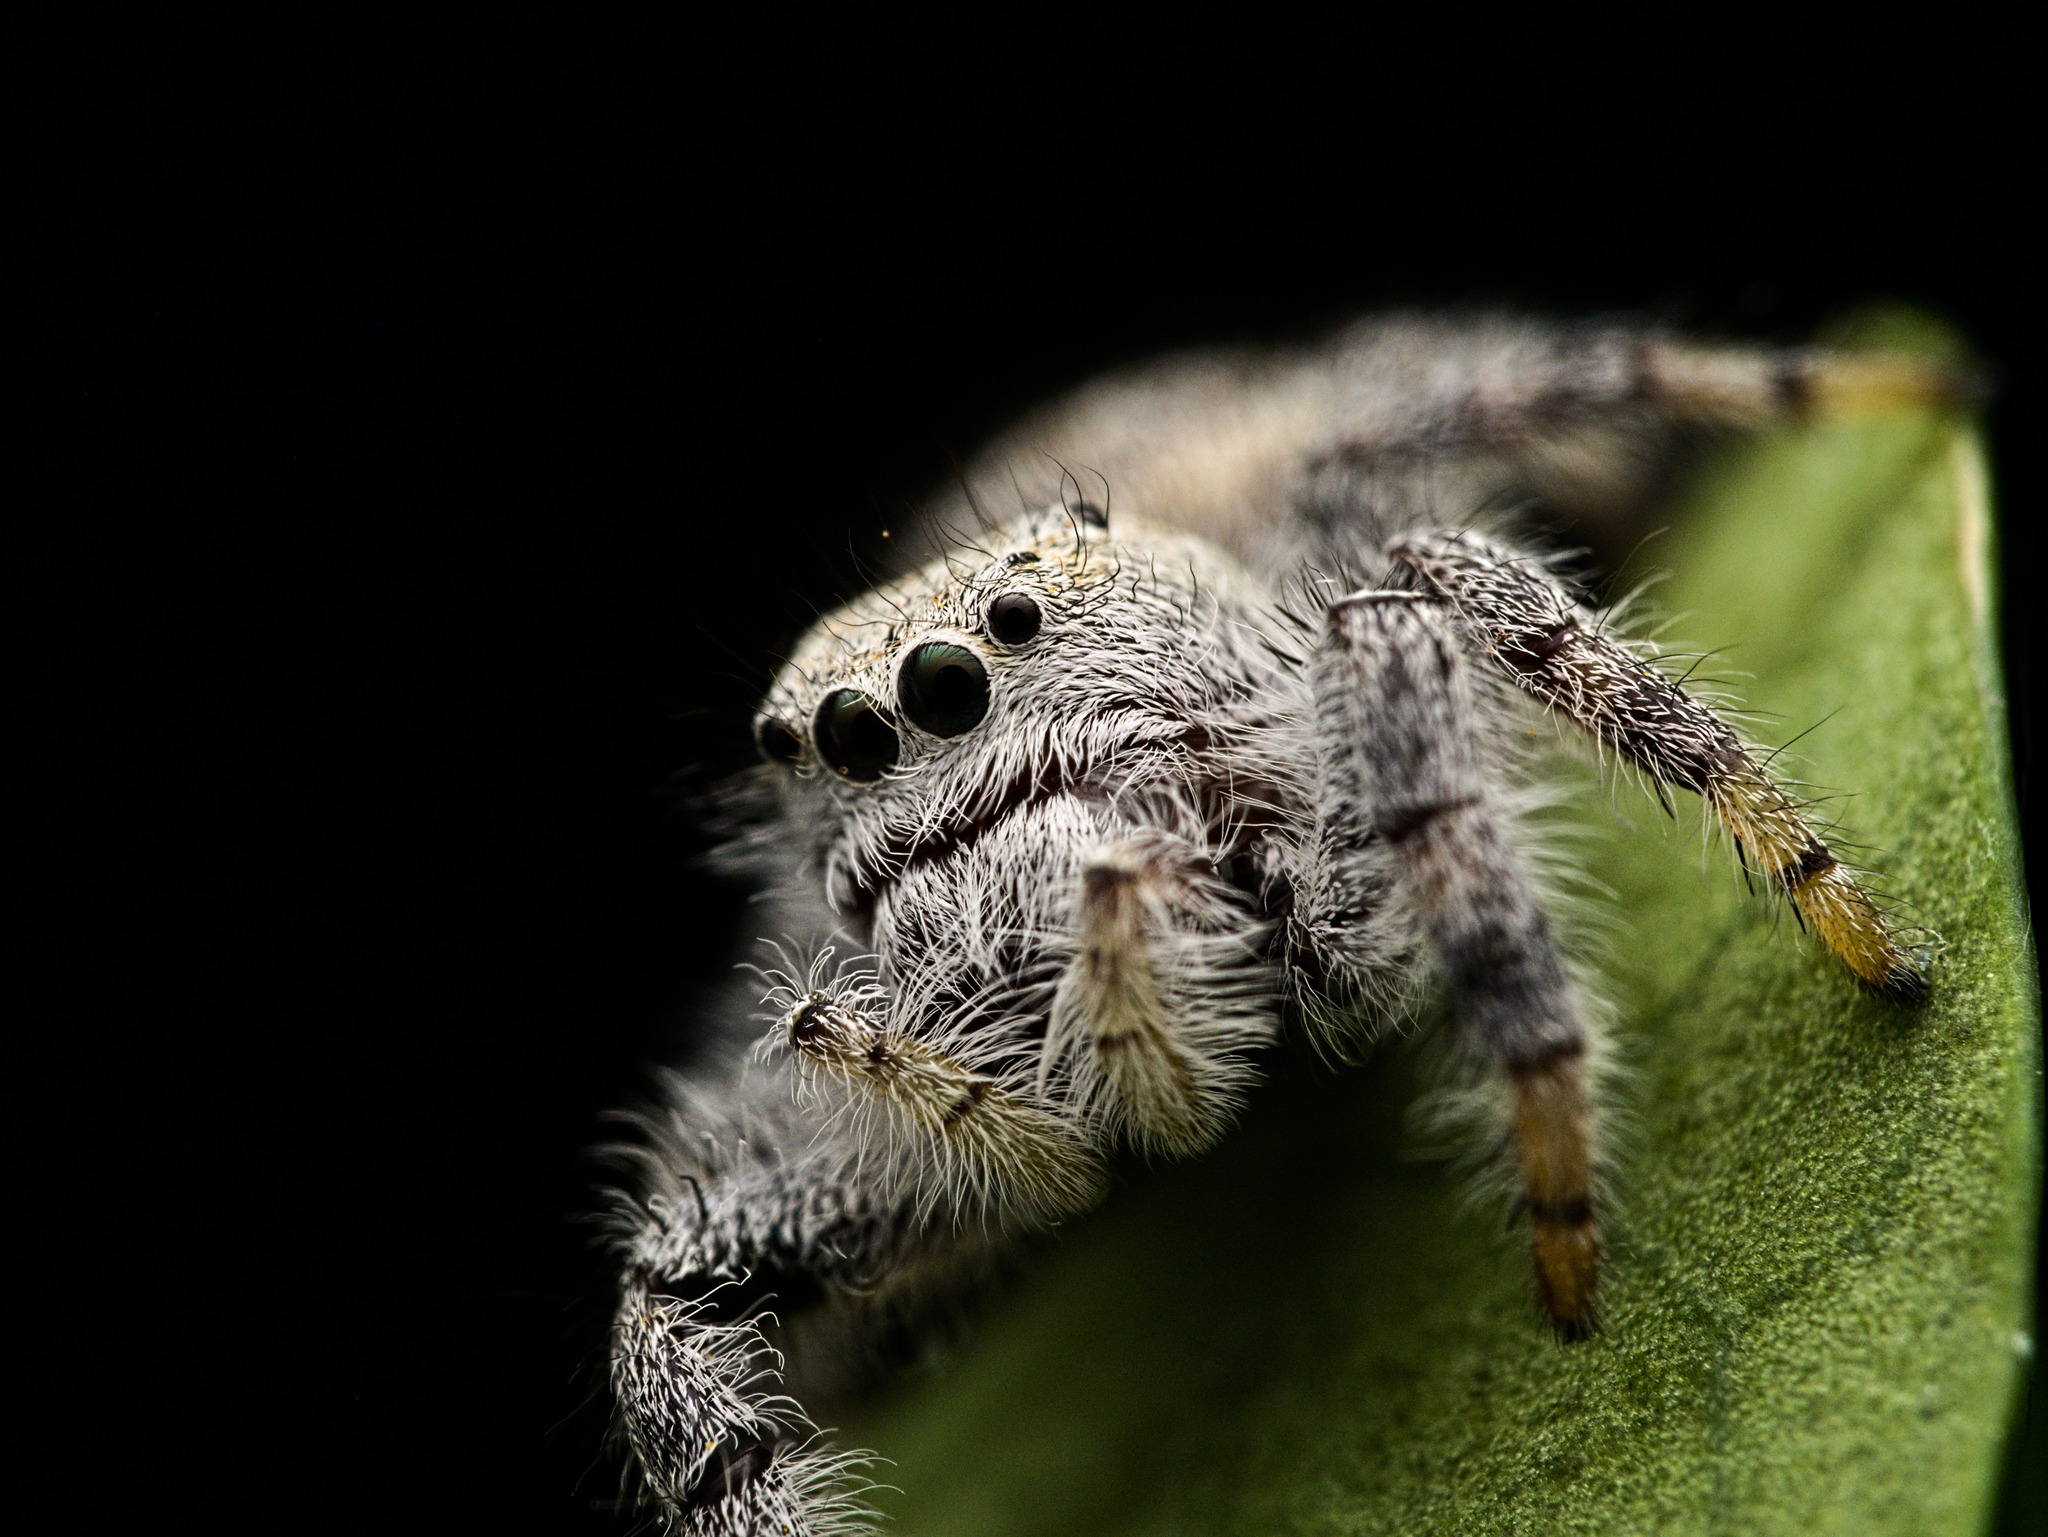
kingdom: Animalia
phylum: Arthropoda
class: Arachnida
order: Araneae
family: Salticidae
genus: Paraphidippus
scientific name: Paraphidippus fartilis
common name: Jumping spiders
